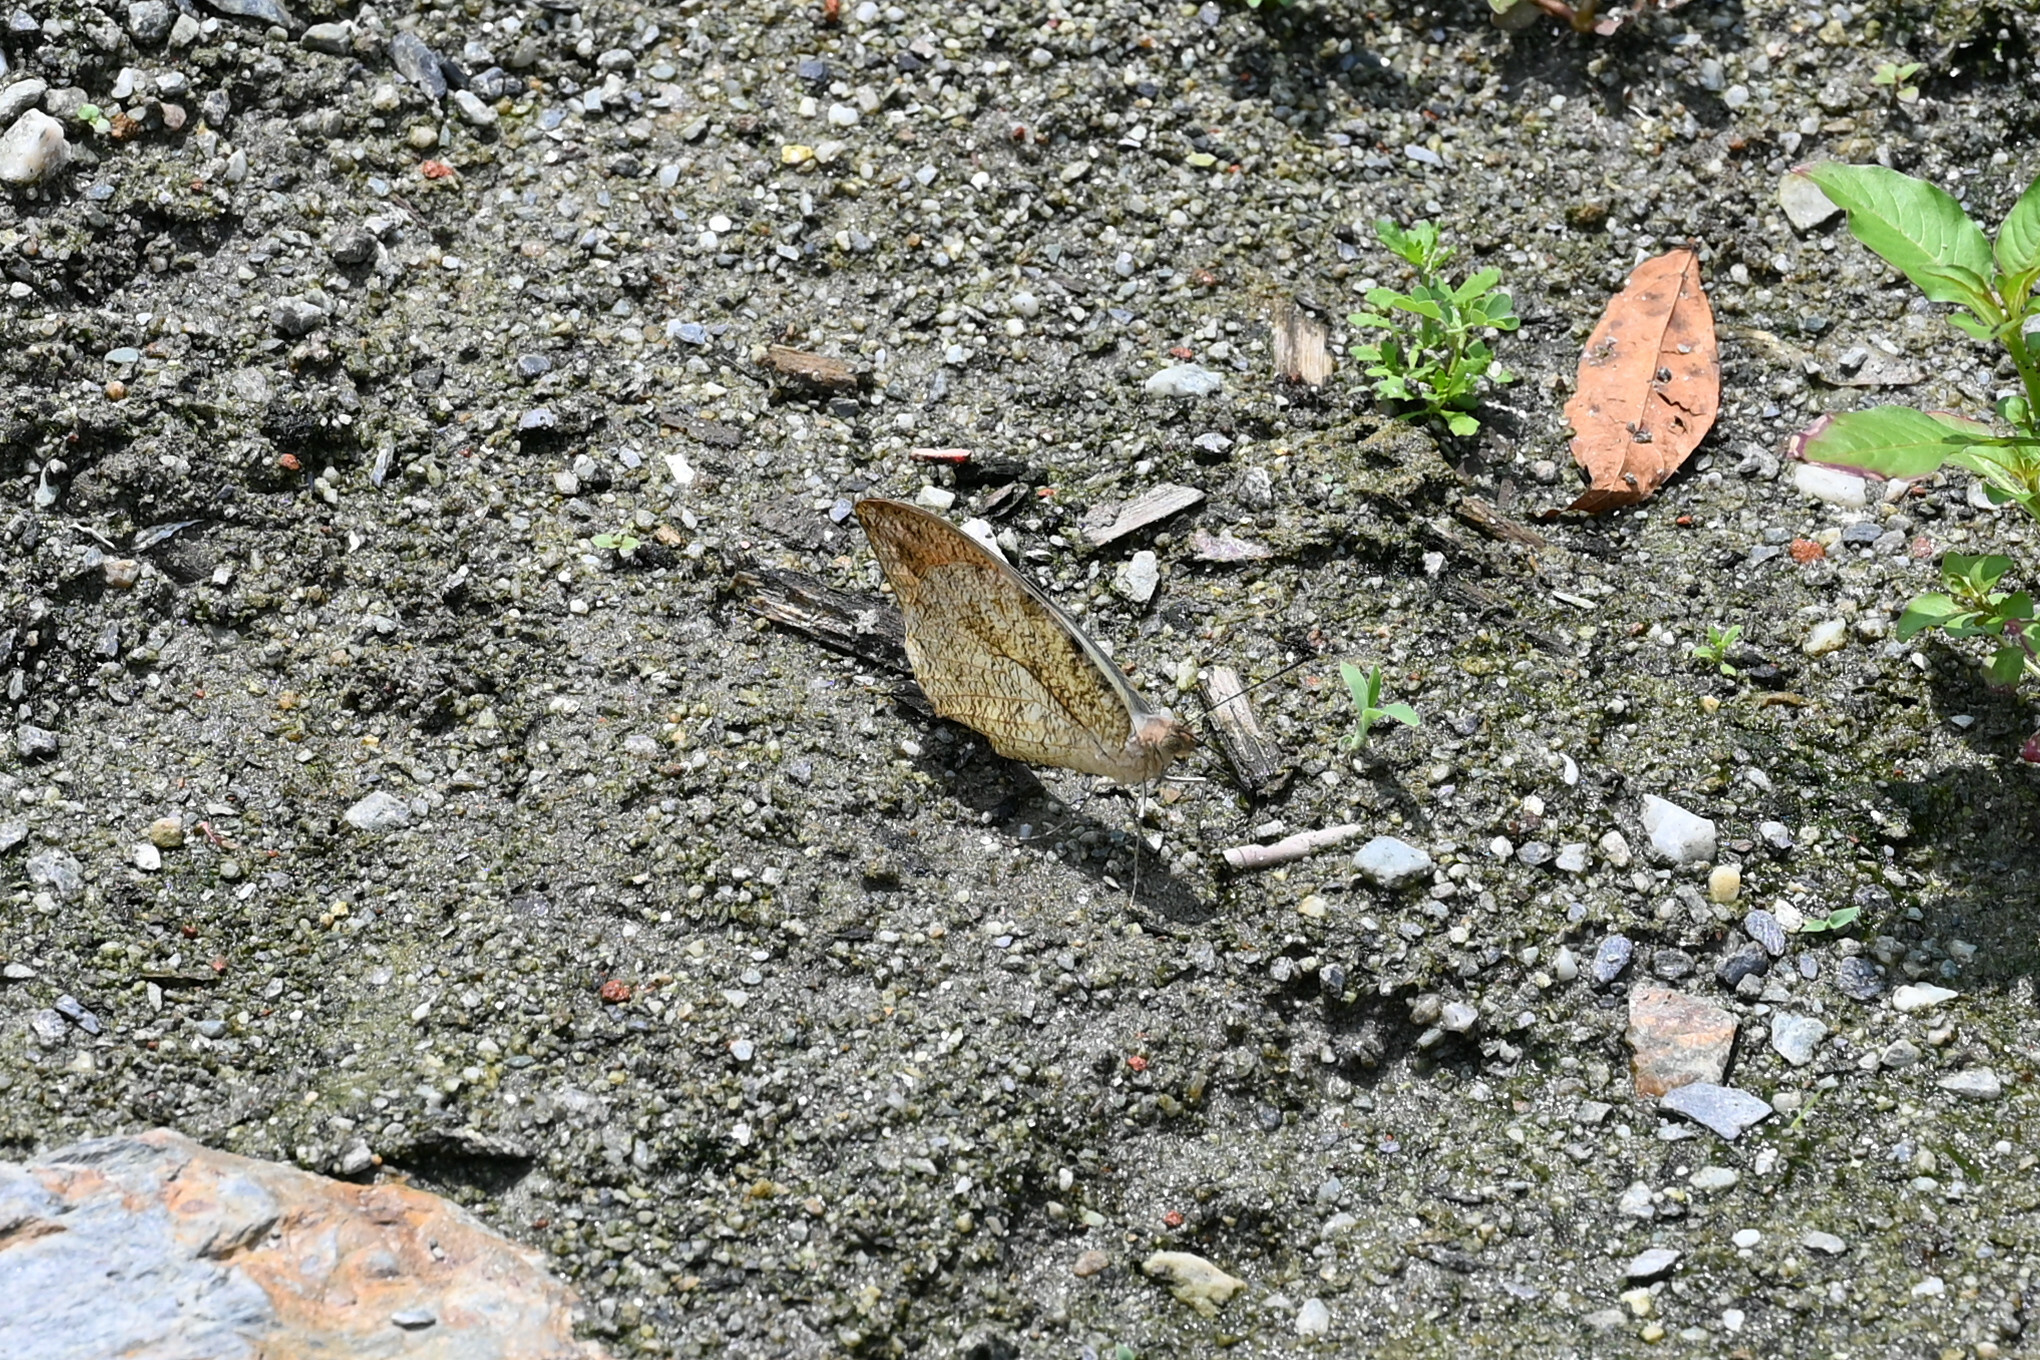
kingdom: Animalia
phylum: Arthropoda
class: Insecta
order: Lepidoptera
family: Pieridae
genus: Hebomoia
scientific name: Hebomoia glaucippe
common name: Great orange tip
